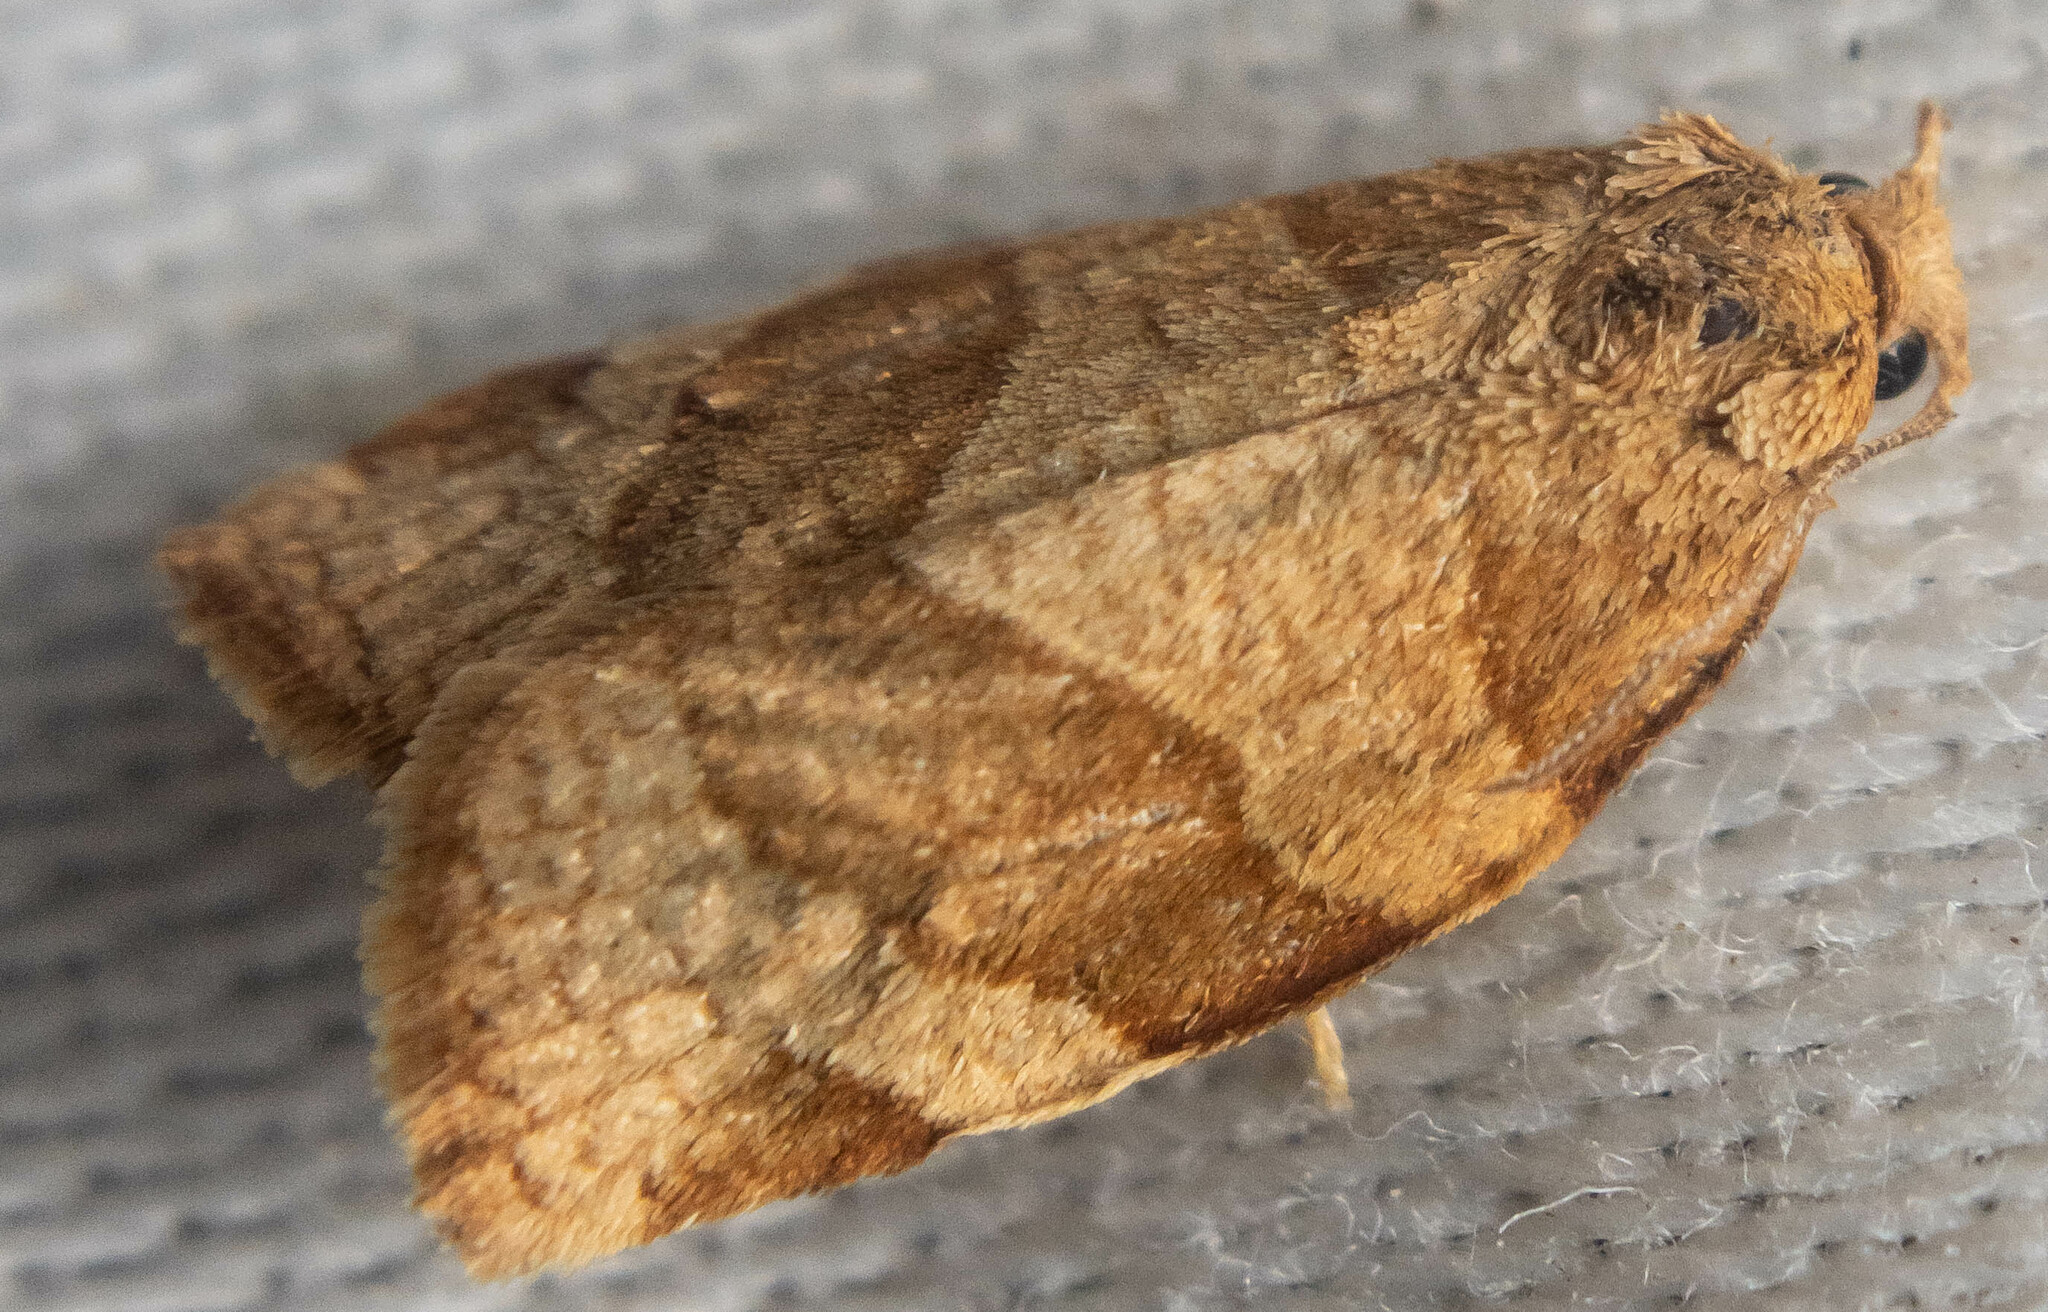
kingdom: Animalia
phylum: Arthropoda
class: Insecta
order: Lepidoptera
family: Tortricidae
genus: Pandemis
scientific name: Pandemis cerasana
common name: Barred fruit-tree tortrix
